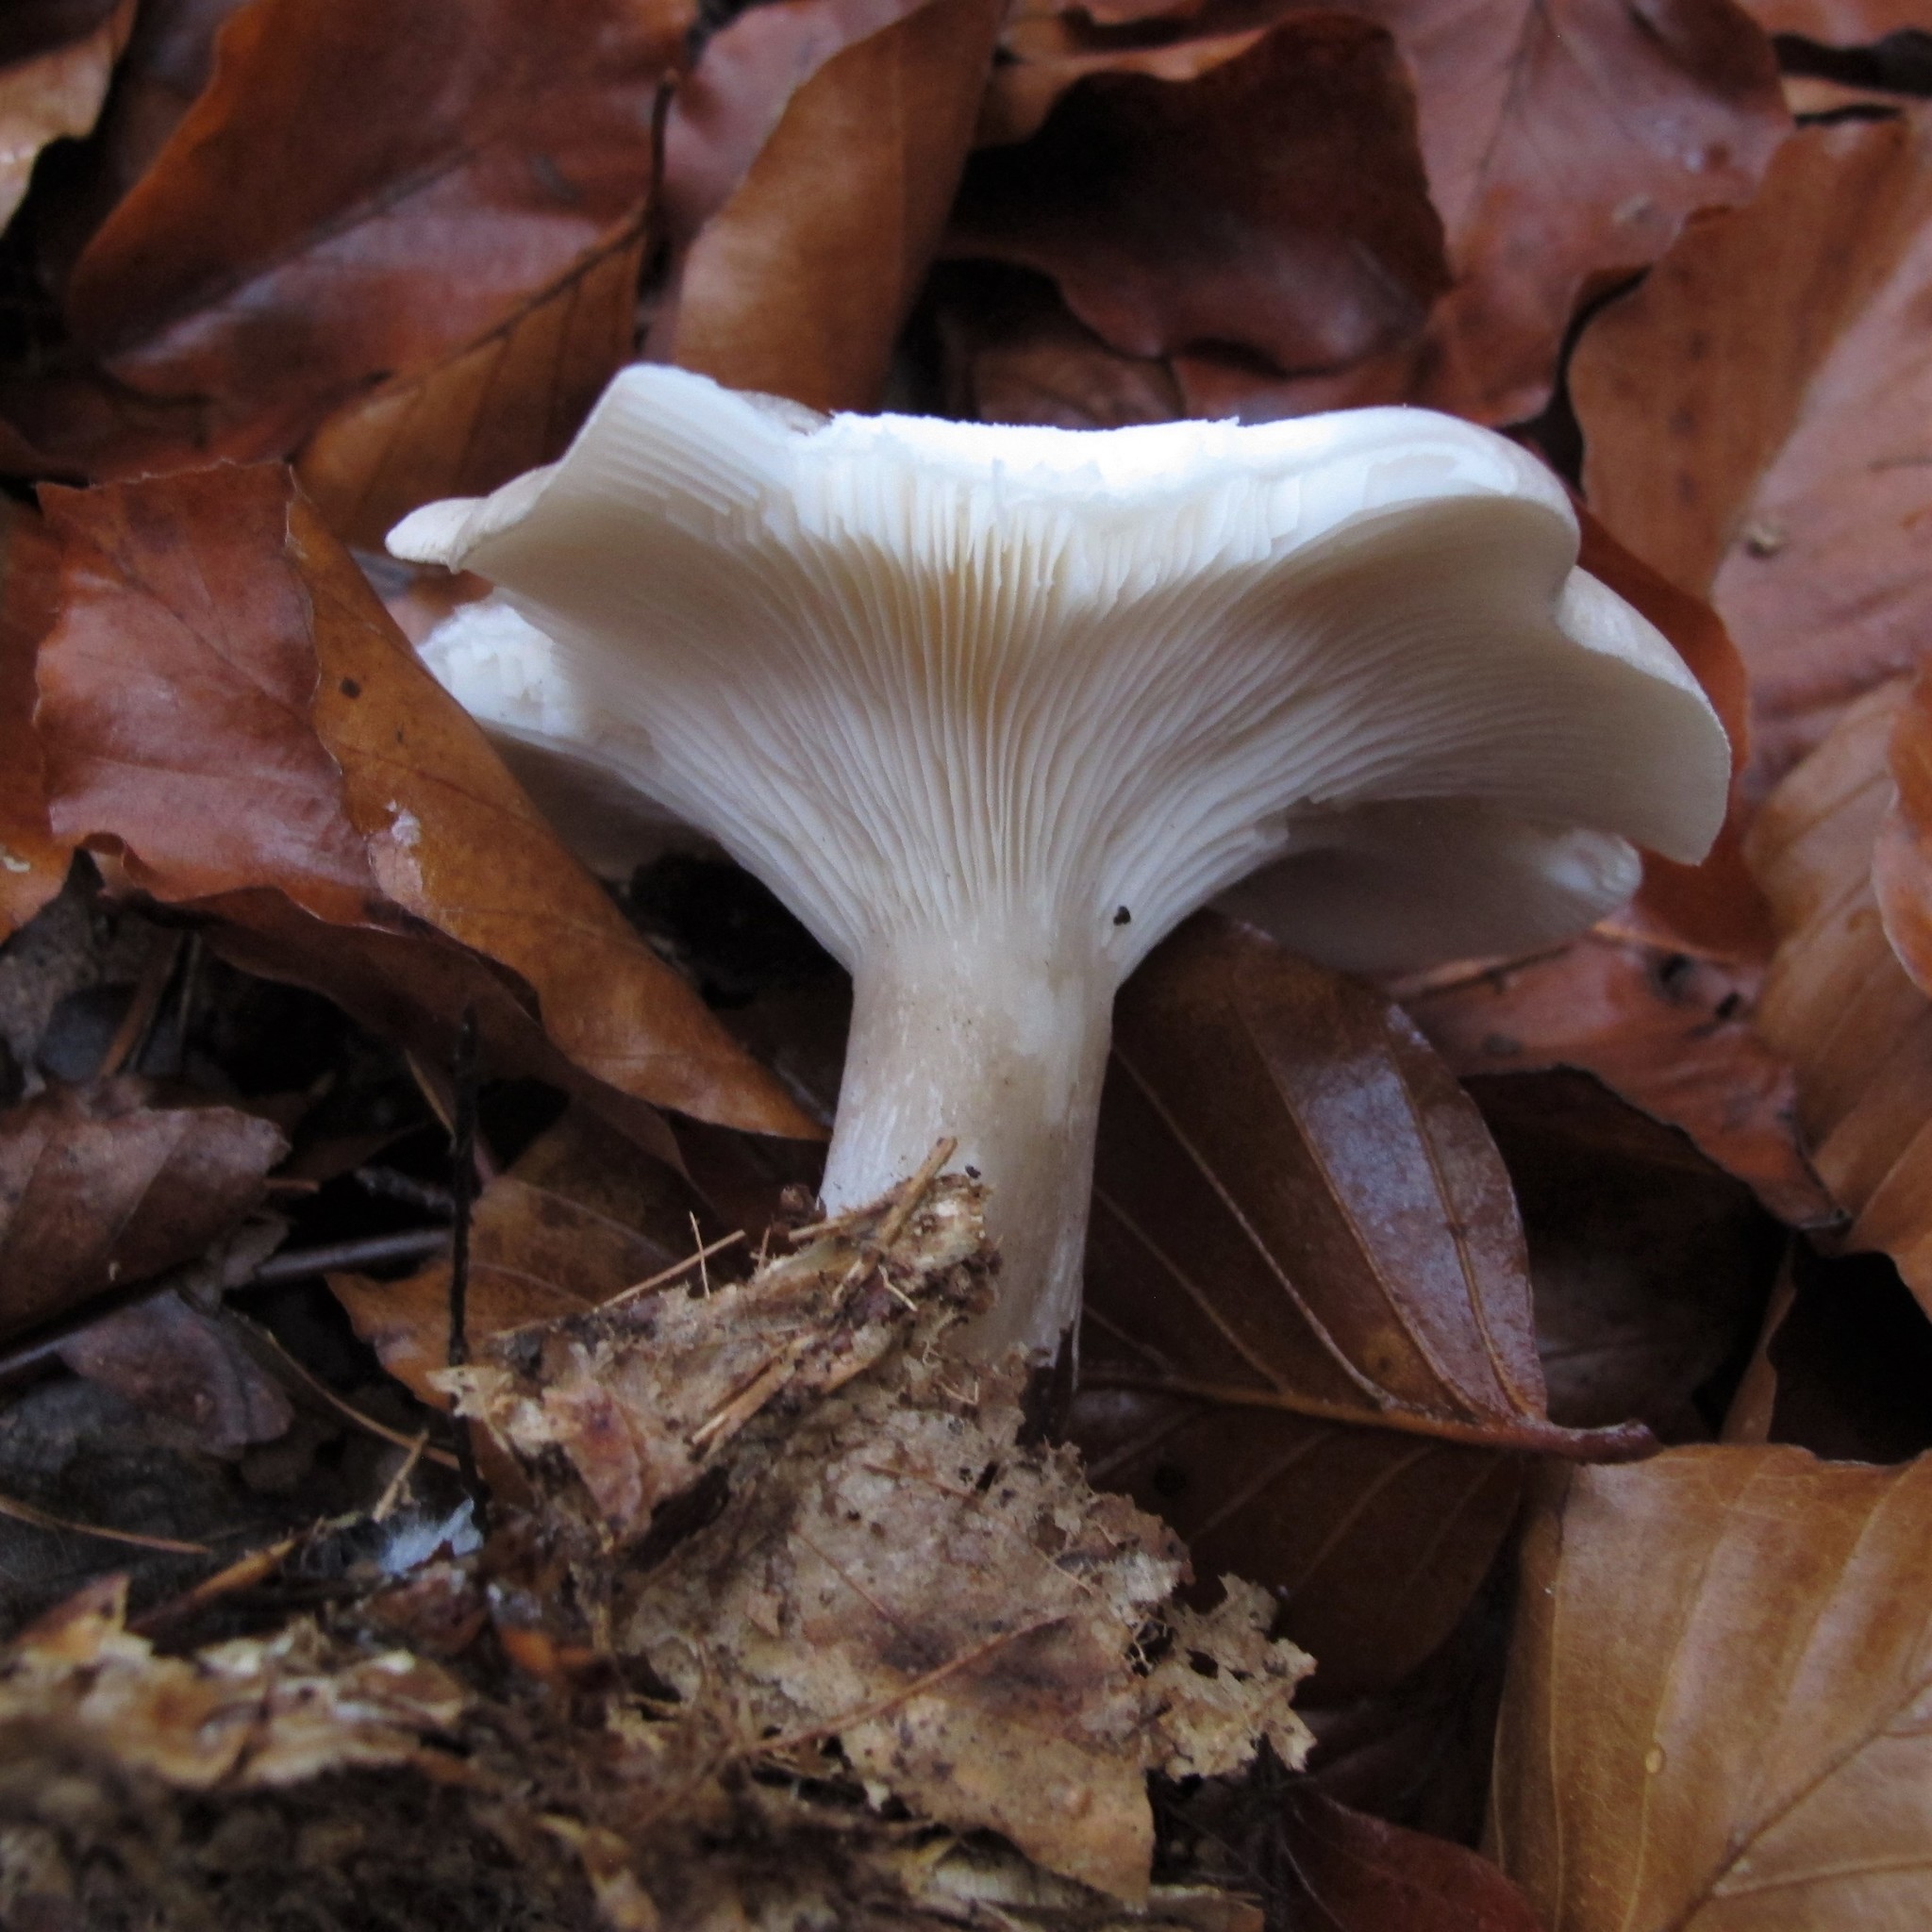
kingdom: Fungi
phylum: Basidiomycota
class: Agaricomycetes
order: Agaricales
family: Tricholomataceae
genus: Clitocybe
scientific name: Clitocybe nebularis
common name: Clouded agaric
